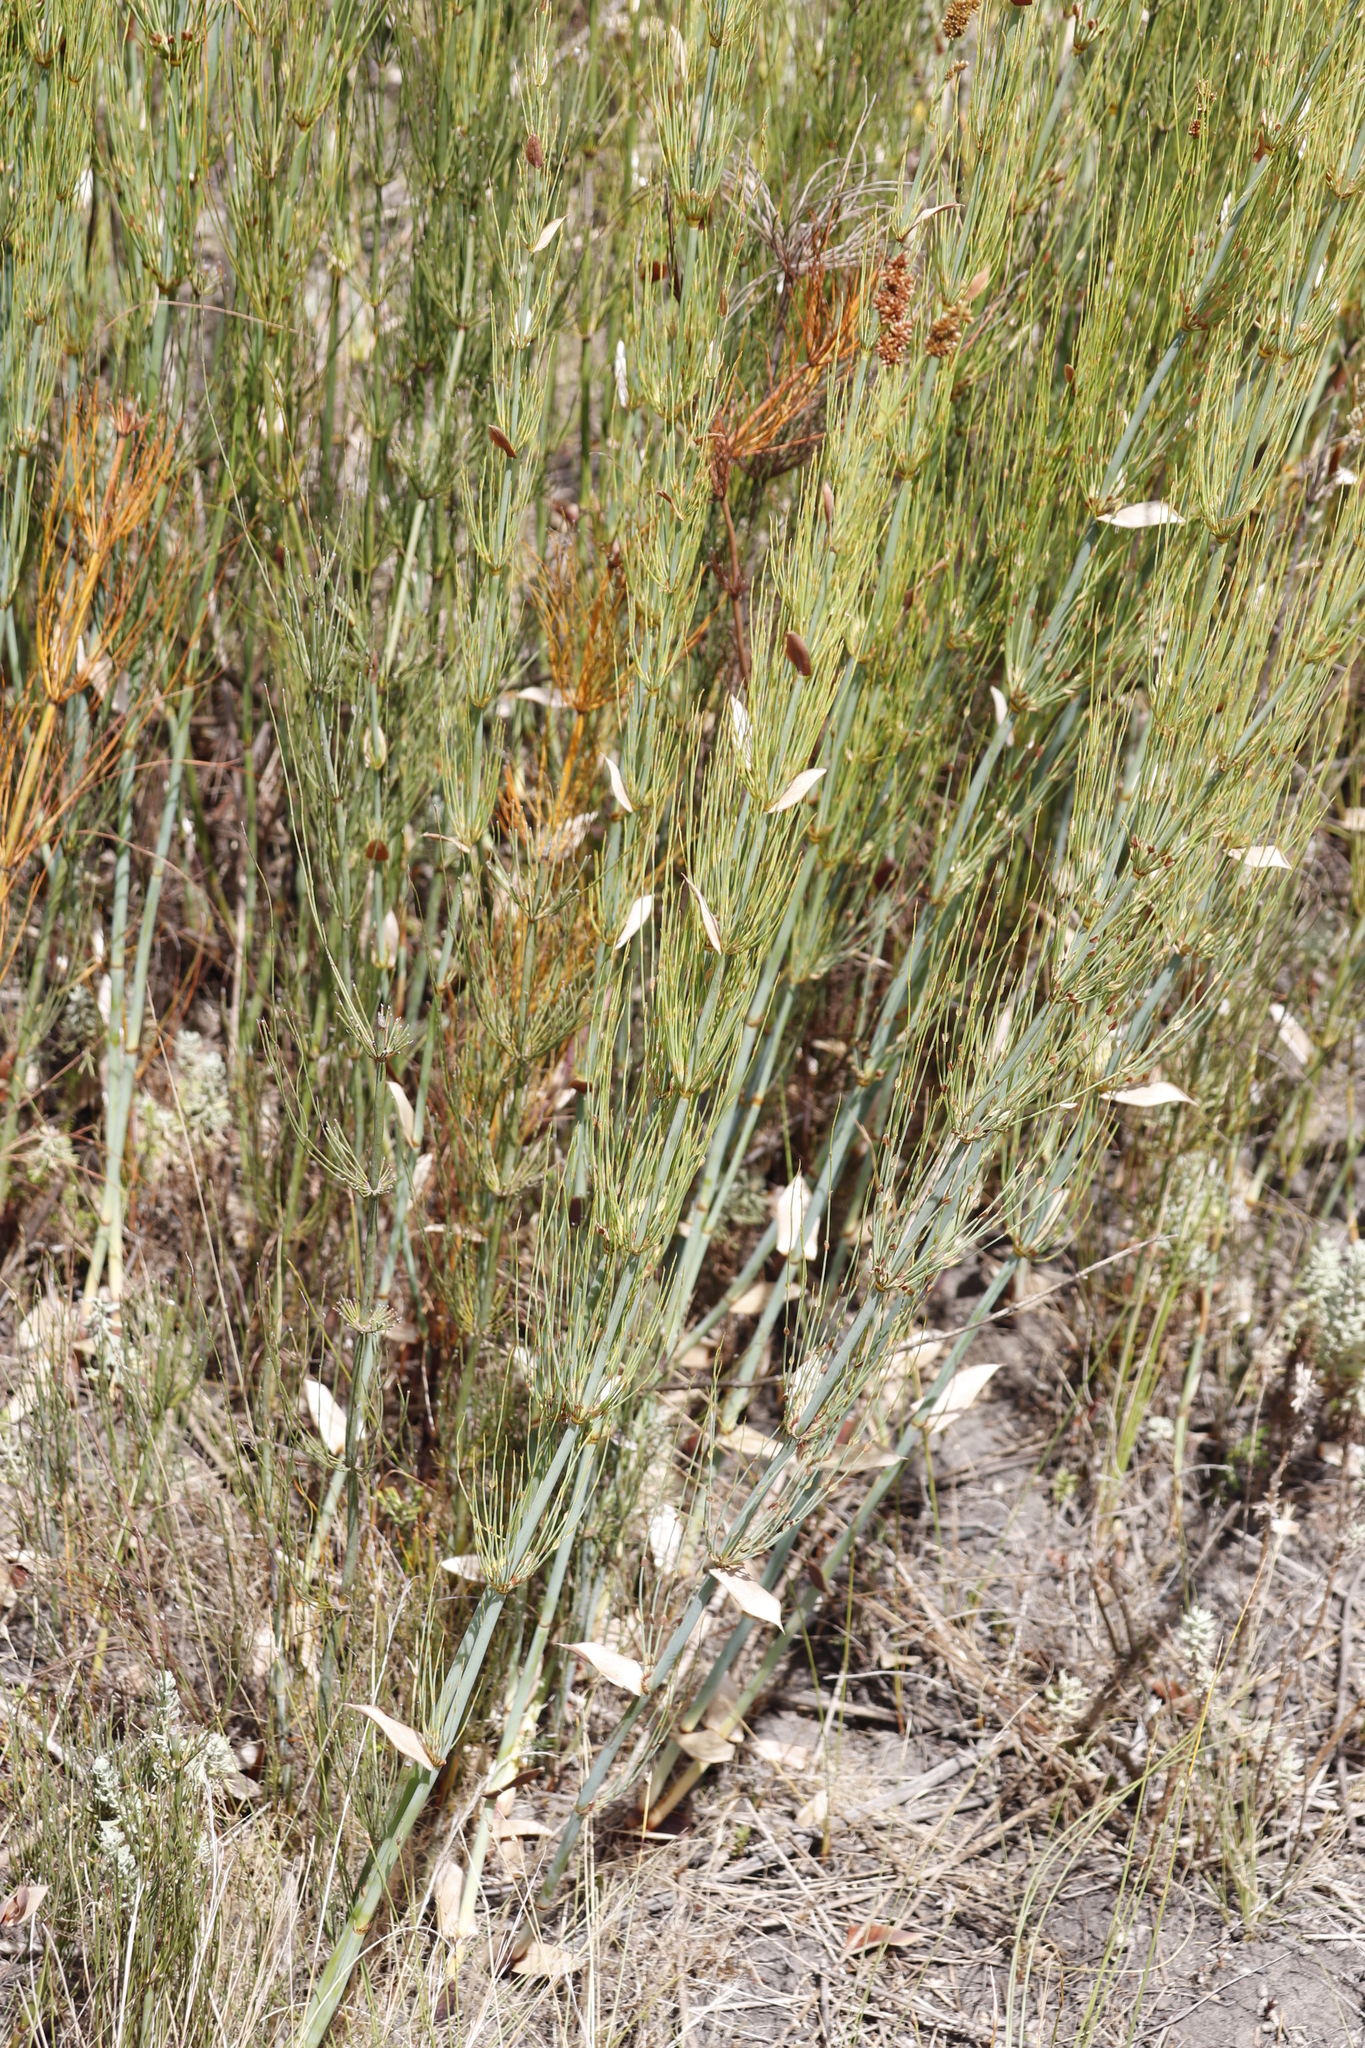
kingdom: Plantae
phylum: Tracheophyta
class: Liliopsida
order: Poales
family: Restionaceae
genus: Elegia
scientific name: Elegia capensis
